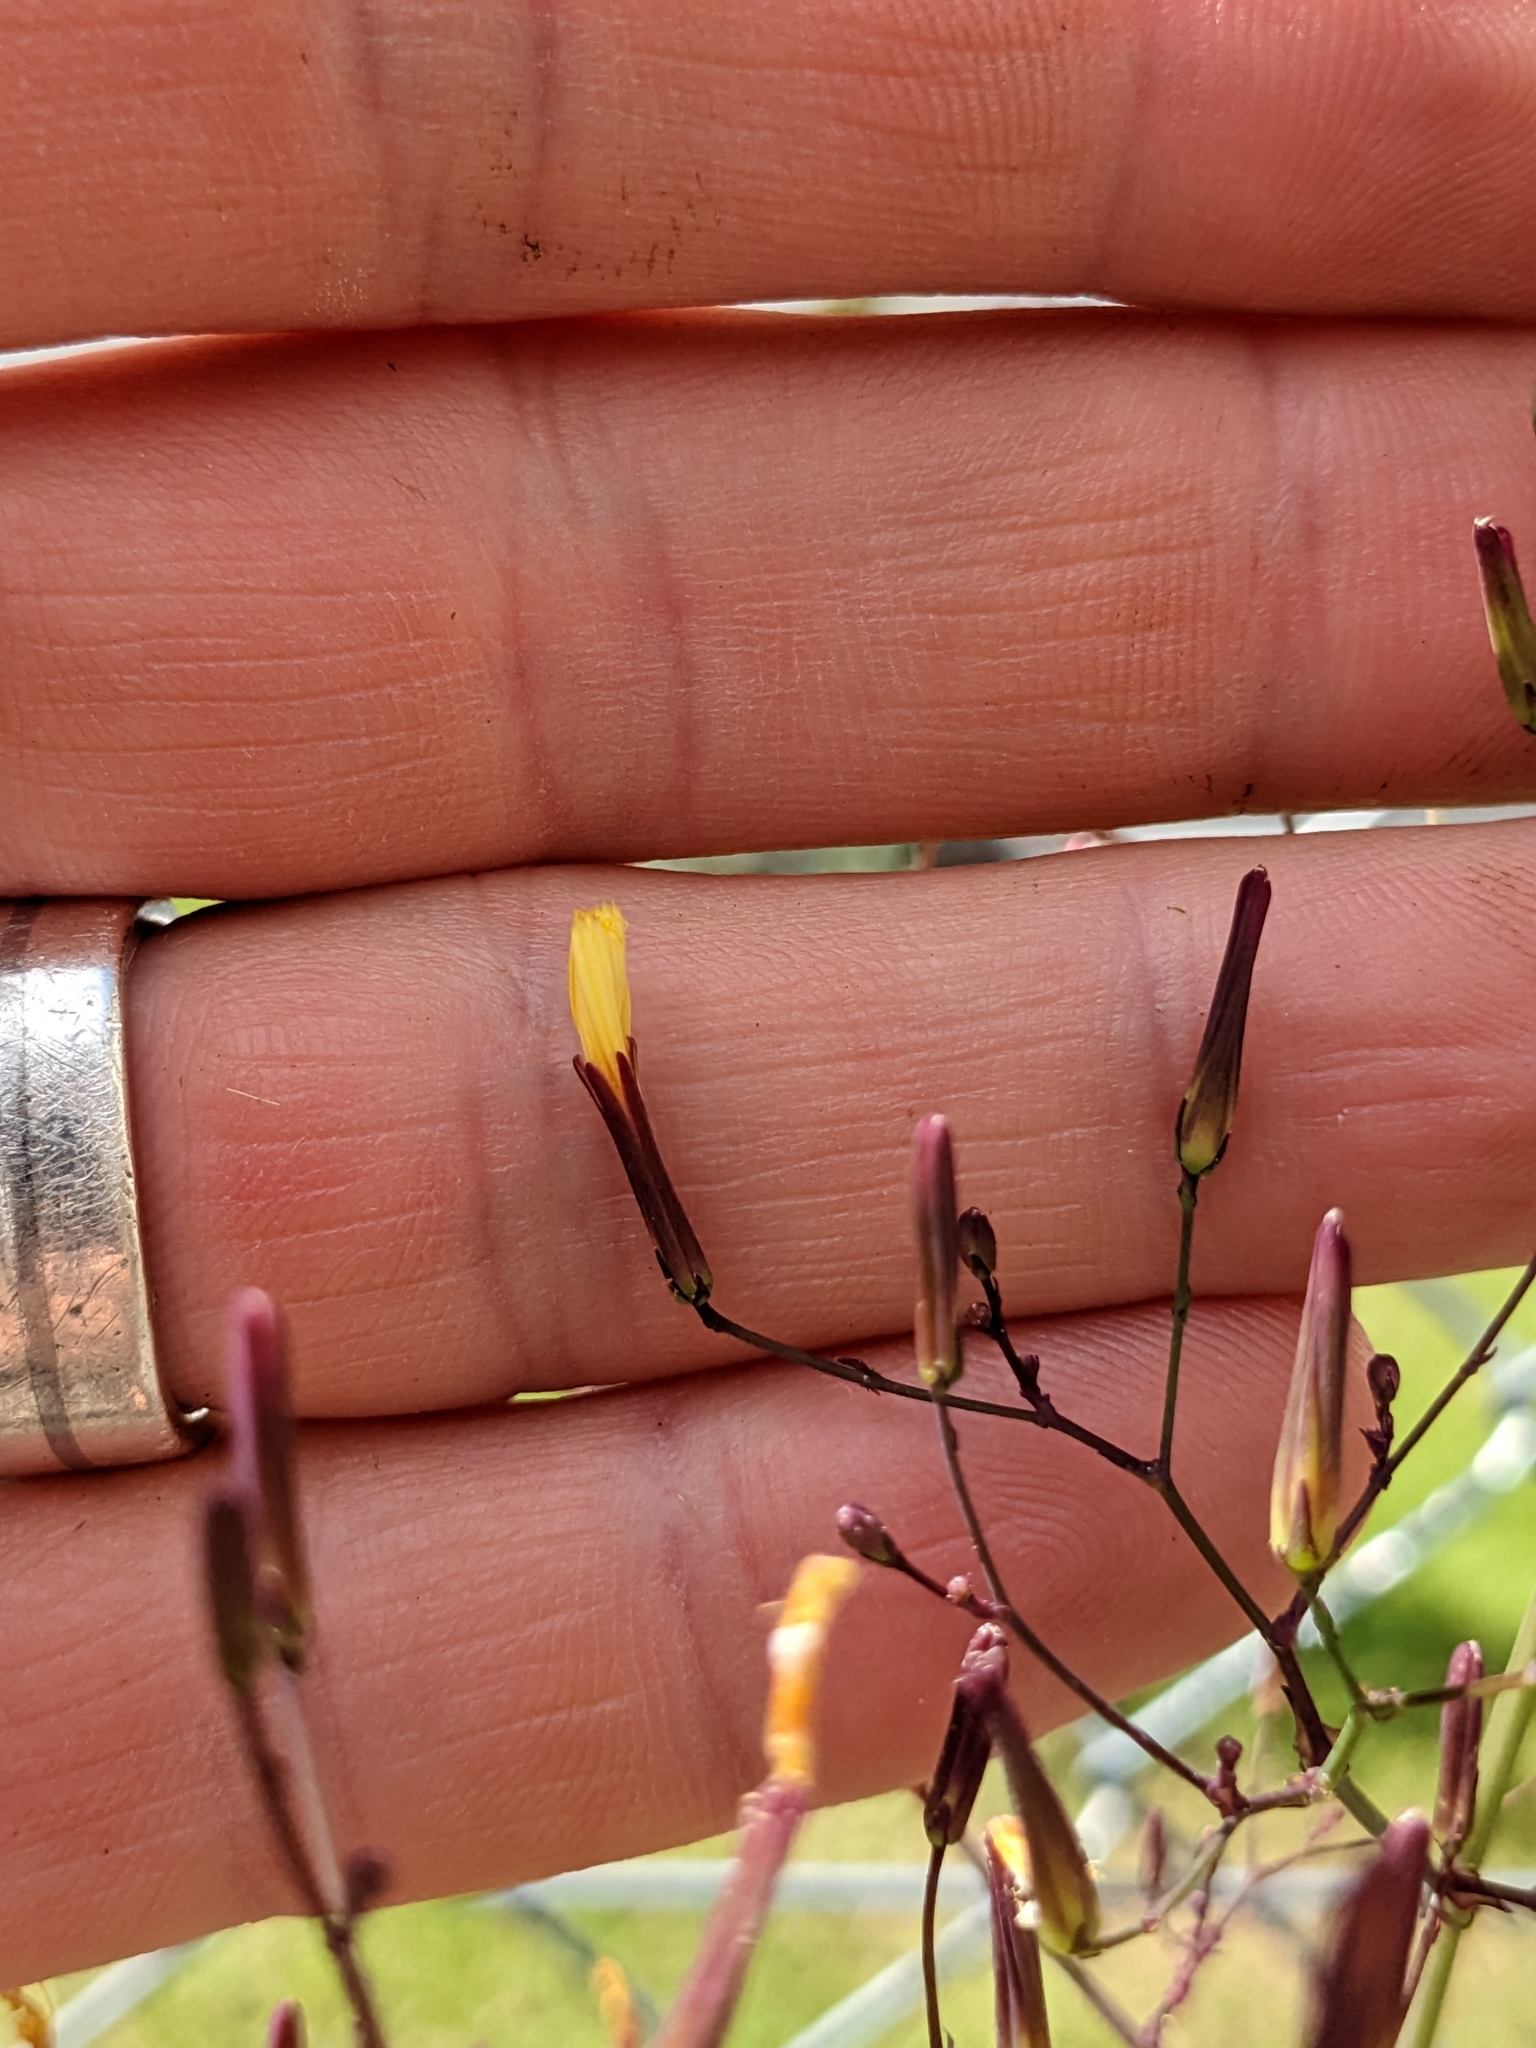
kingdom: Plantae
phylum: Tracheophyta
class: Magnoliopsida
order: Asterales
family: Asteraceae
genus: Mycelis
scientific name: Mycelis muralis
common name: Wall lettuce
